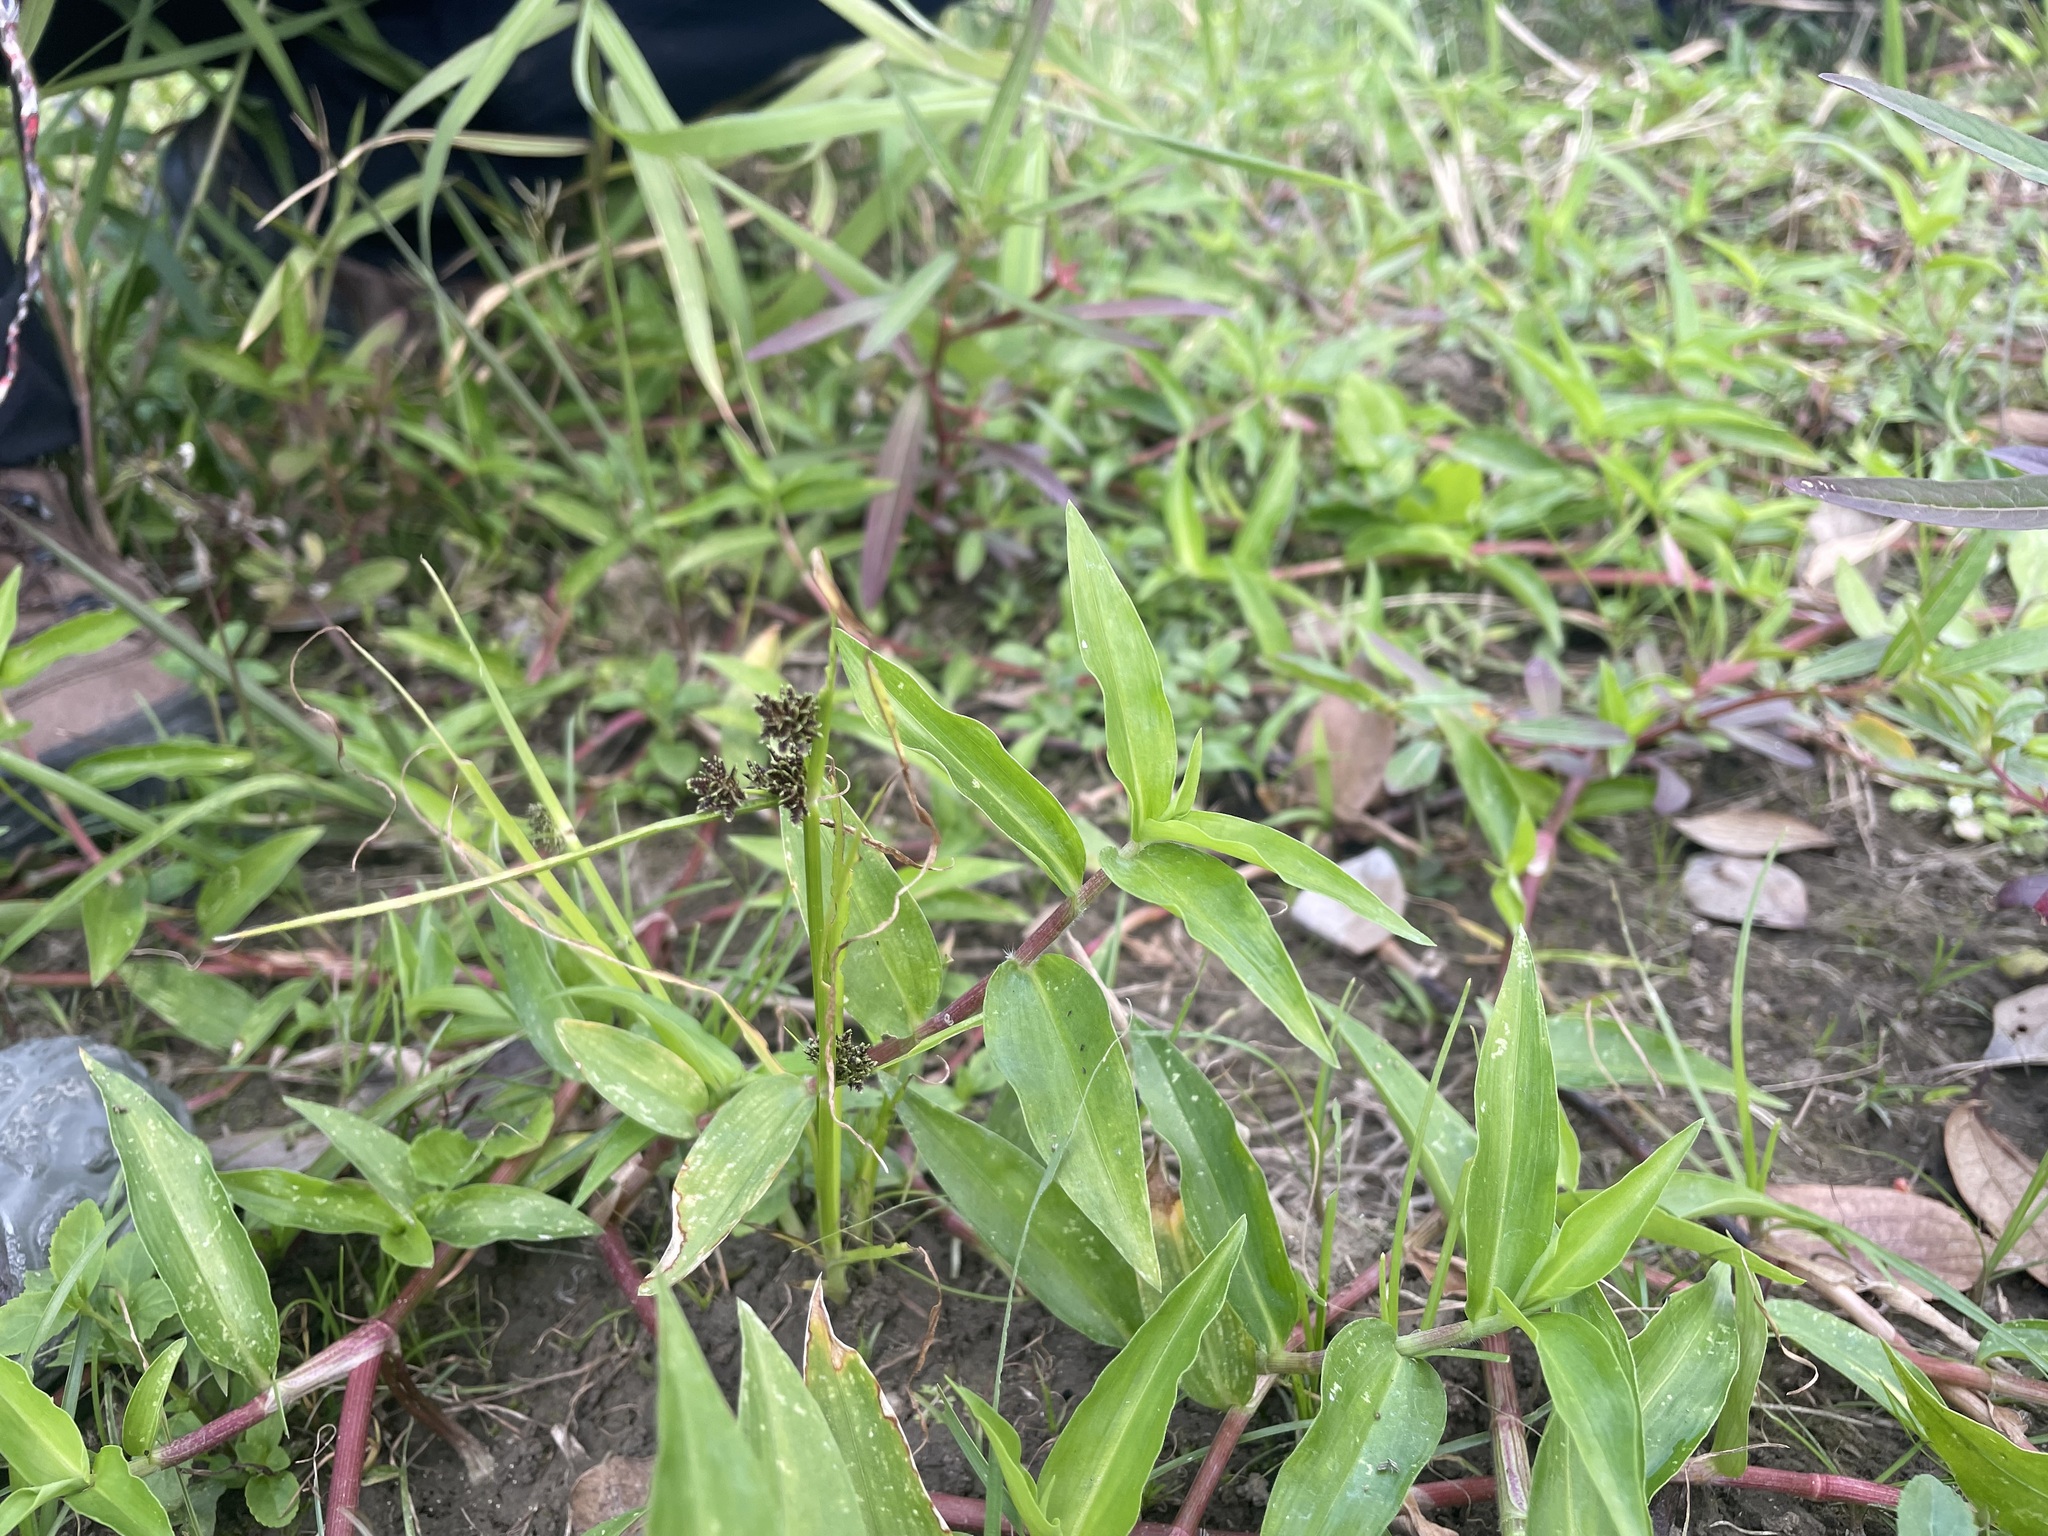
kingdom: Plantae
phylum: Tracheophyta
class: Liliopsida
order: Poales
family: Cyperaceae
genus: Cyperus
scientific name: Cyperus difformis
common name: Variable flatsedge
